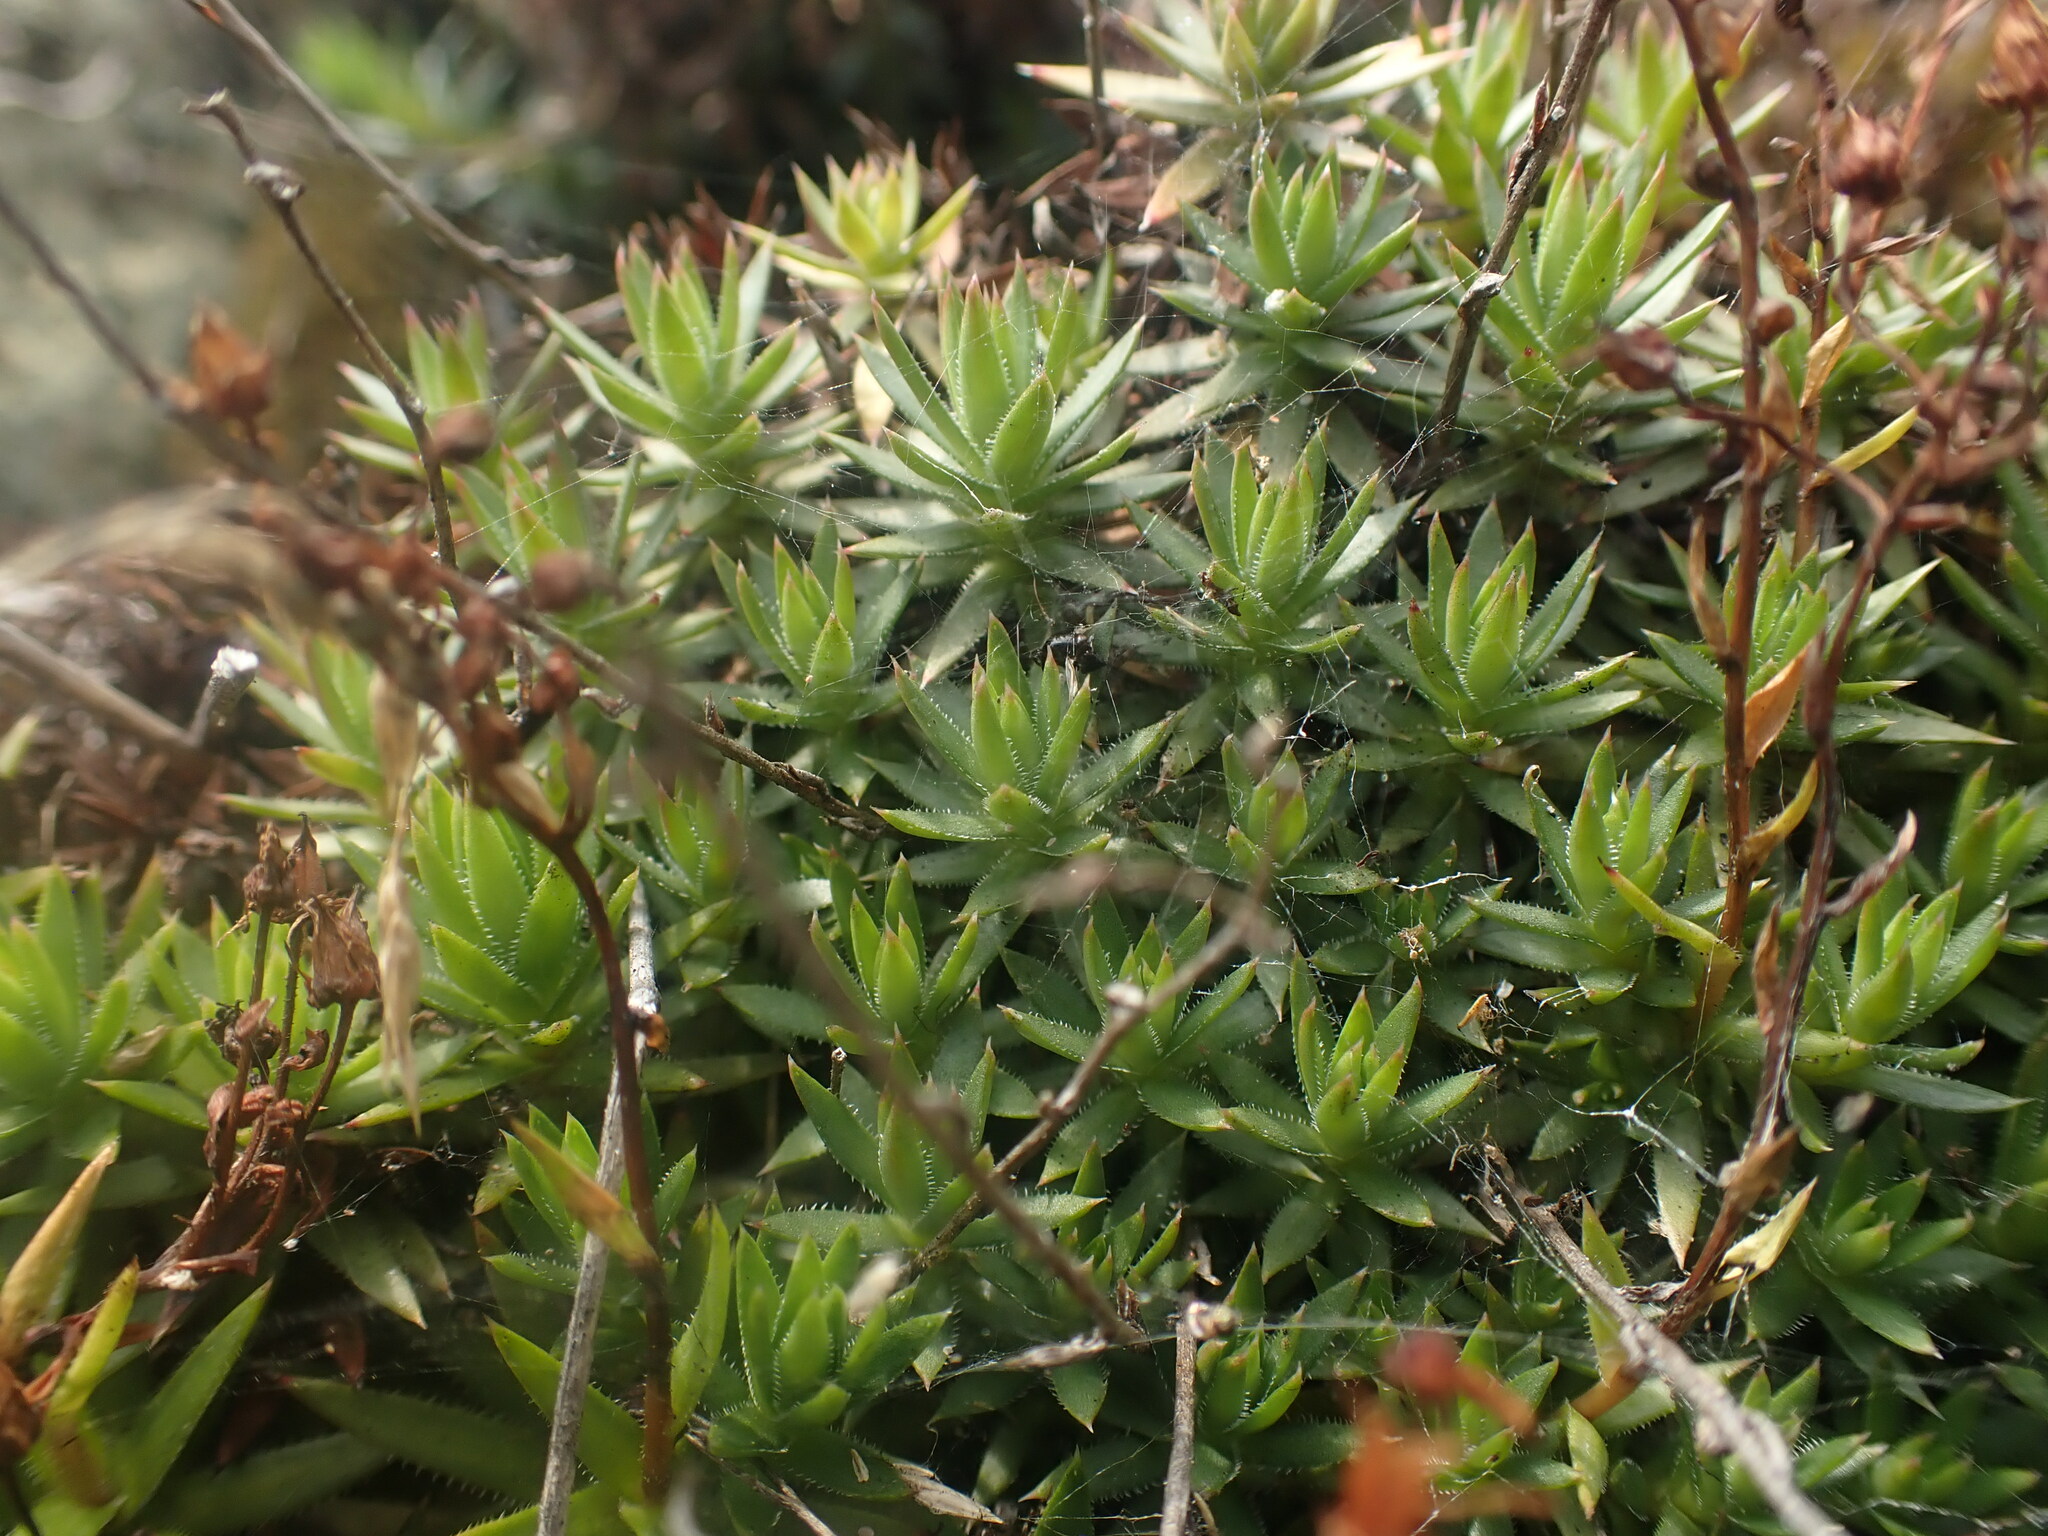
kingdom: Plantae
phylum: Tracheophyta
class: Magnoliopsida
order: Saxifragales
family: Saxifragaceae
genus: Saxifraga
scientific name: Saxifraga bronchialis
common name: Matted saxifrage
